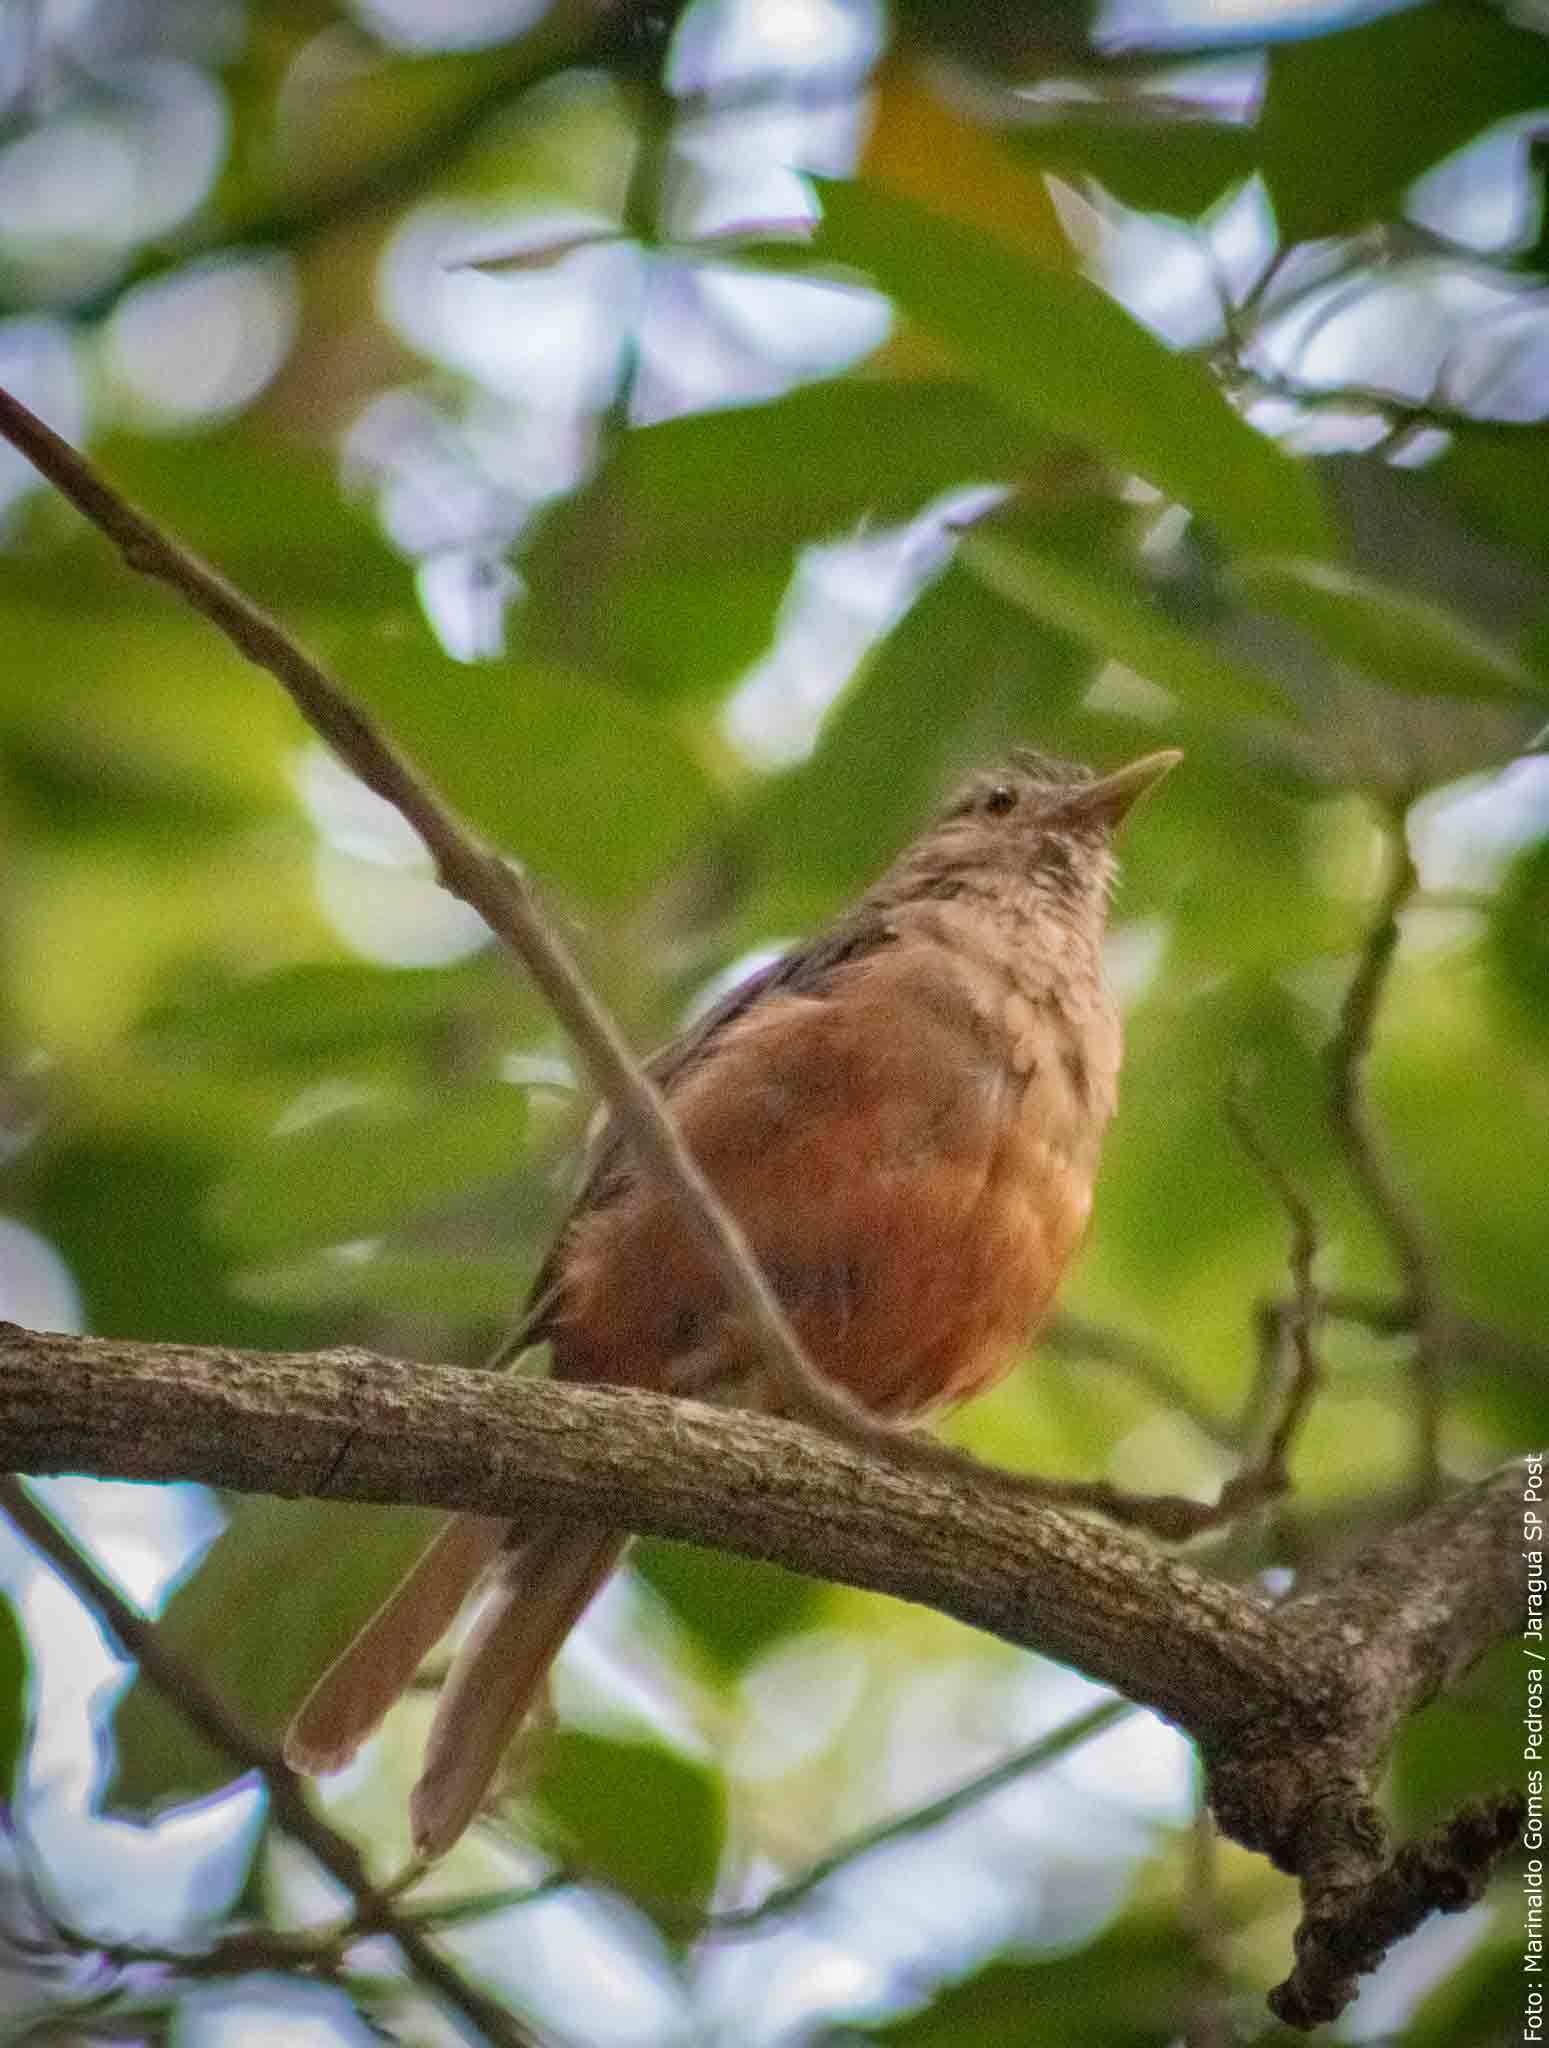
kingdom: Animalia
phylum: Chordata
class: Aves
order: Passeriformes
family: Turdidae
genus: Turdus
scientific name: Turdus rufiventris
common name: Rufous-bellied thrush
